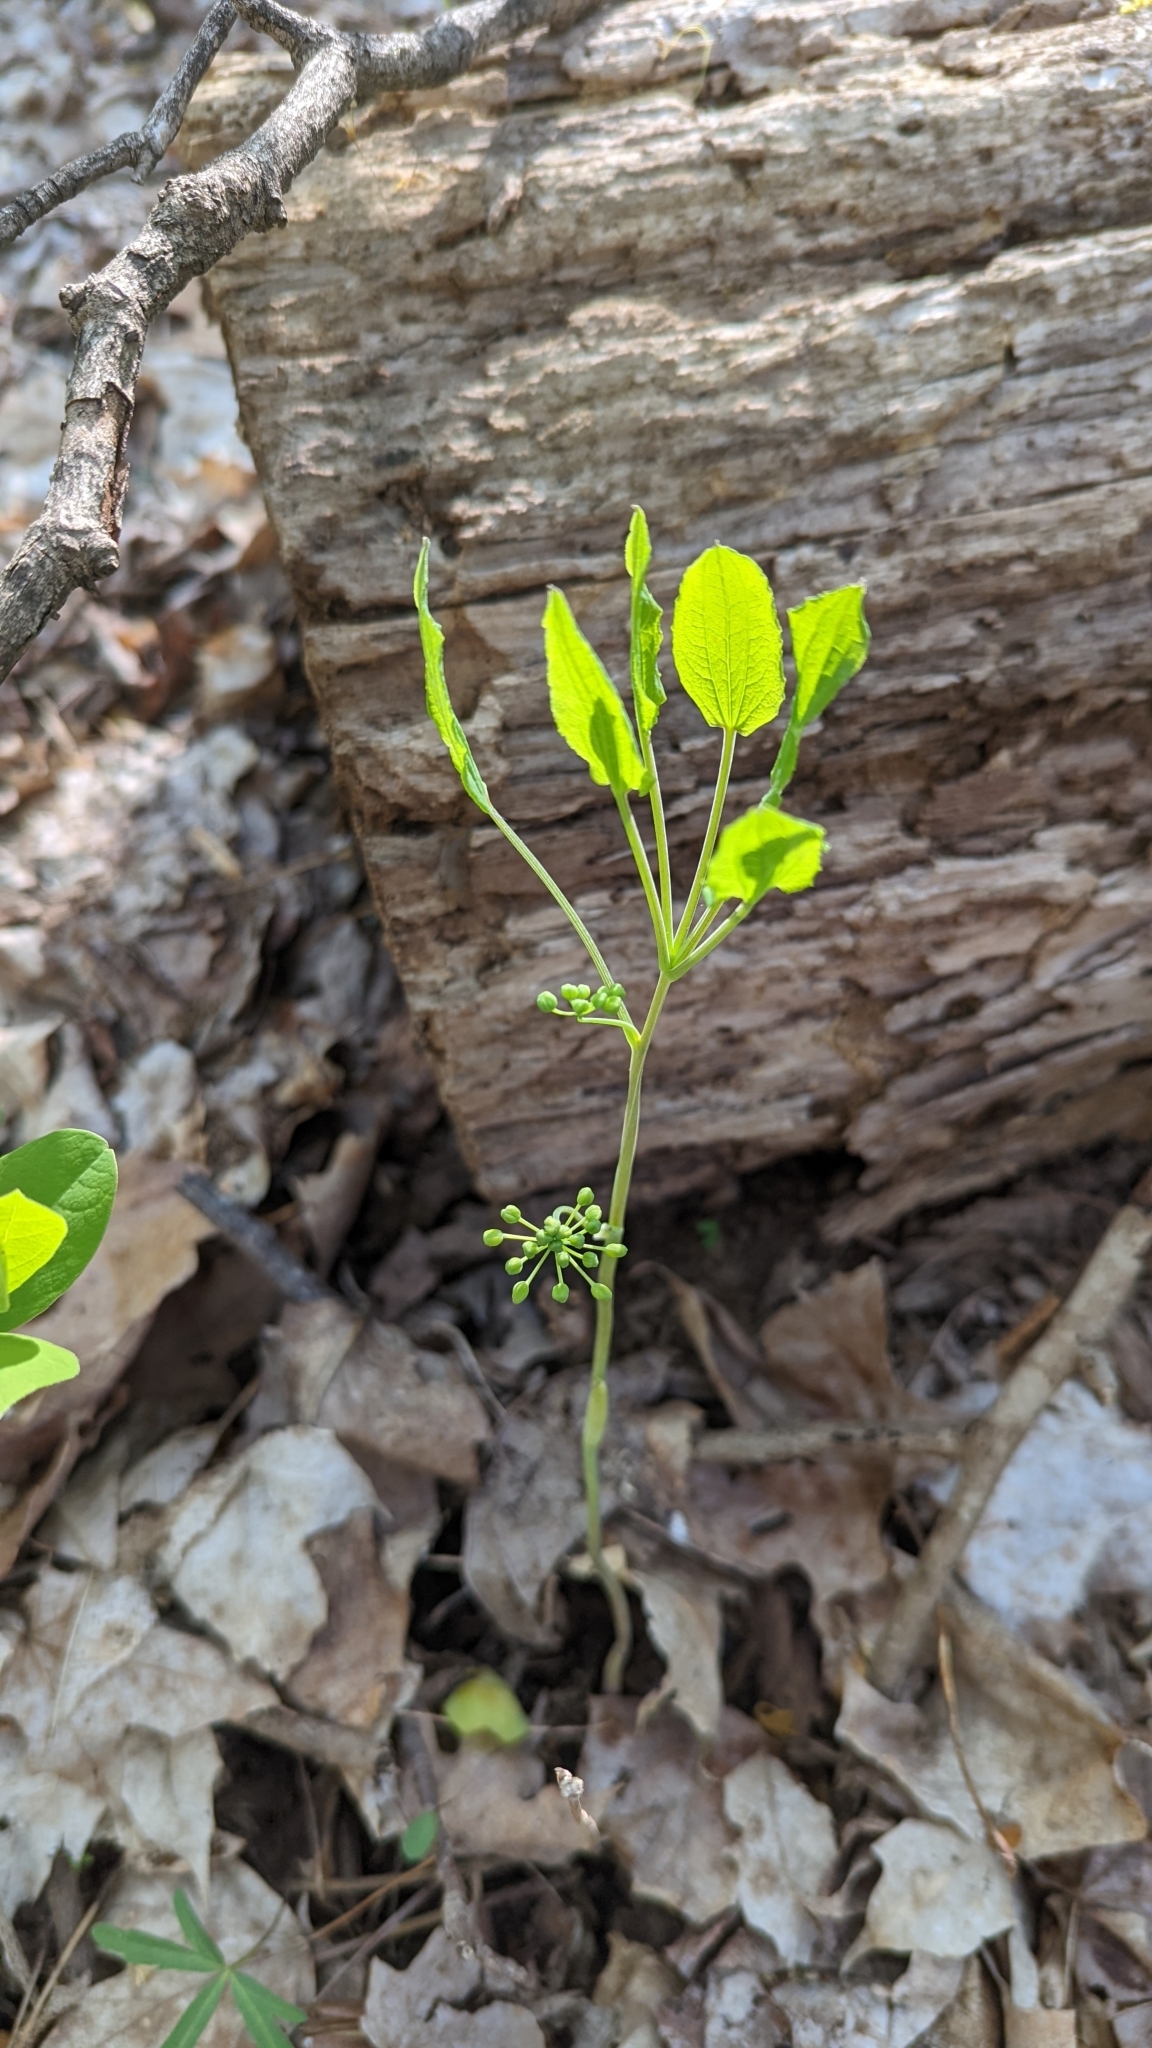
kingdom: Plantae
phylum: Tracheophyta
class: Liliopsida
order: Liliales
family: Smilacaceae
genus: Smilax
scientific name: Smilax ecirrhata
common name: Upright carrionflower
